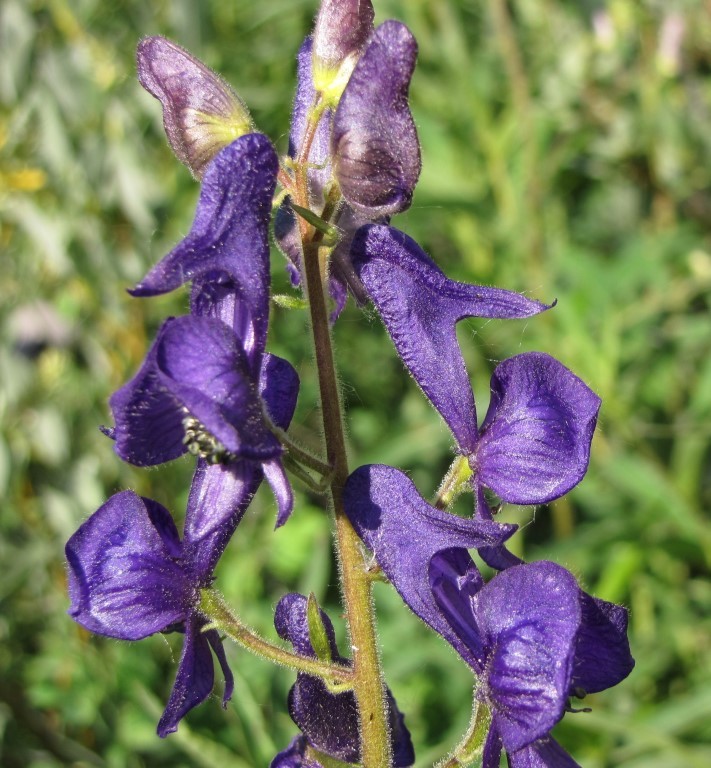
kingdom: Plantae
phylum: Tracheophyta
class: Magnoliopsida
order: Ranunculales
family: Ranunculaceae
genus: Aconitum
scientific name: Aconitum columbianum
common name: Columbia aconite
